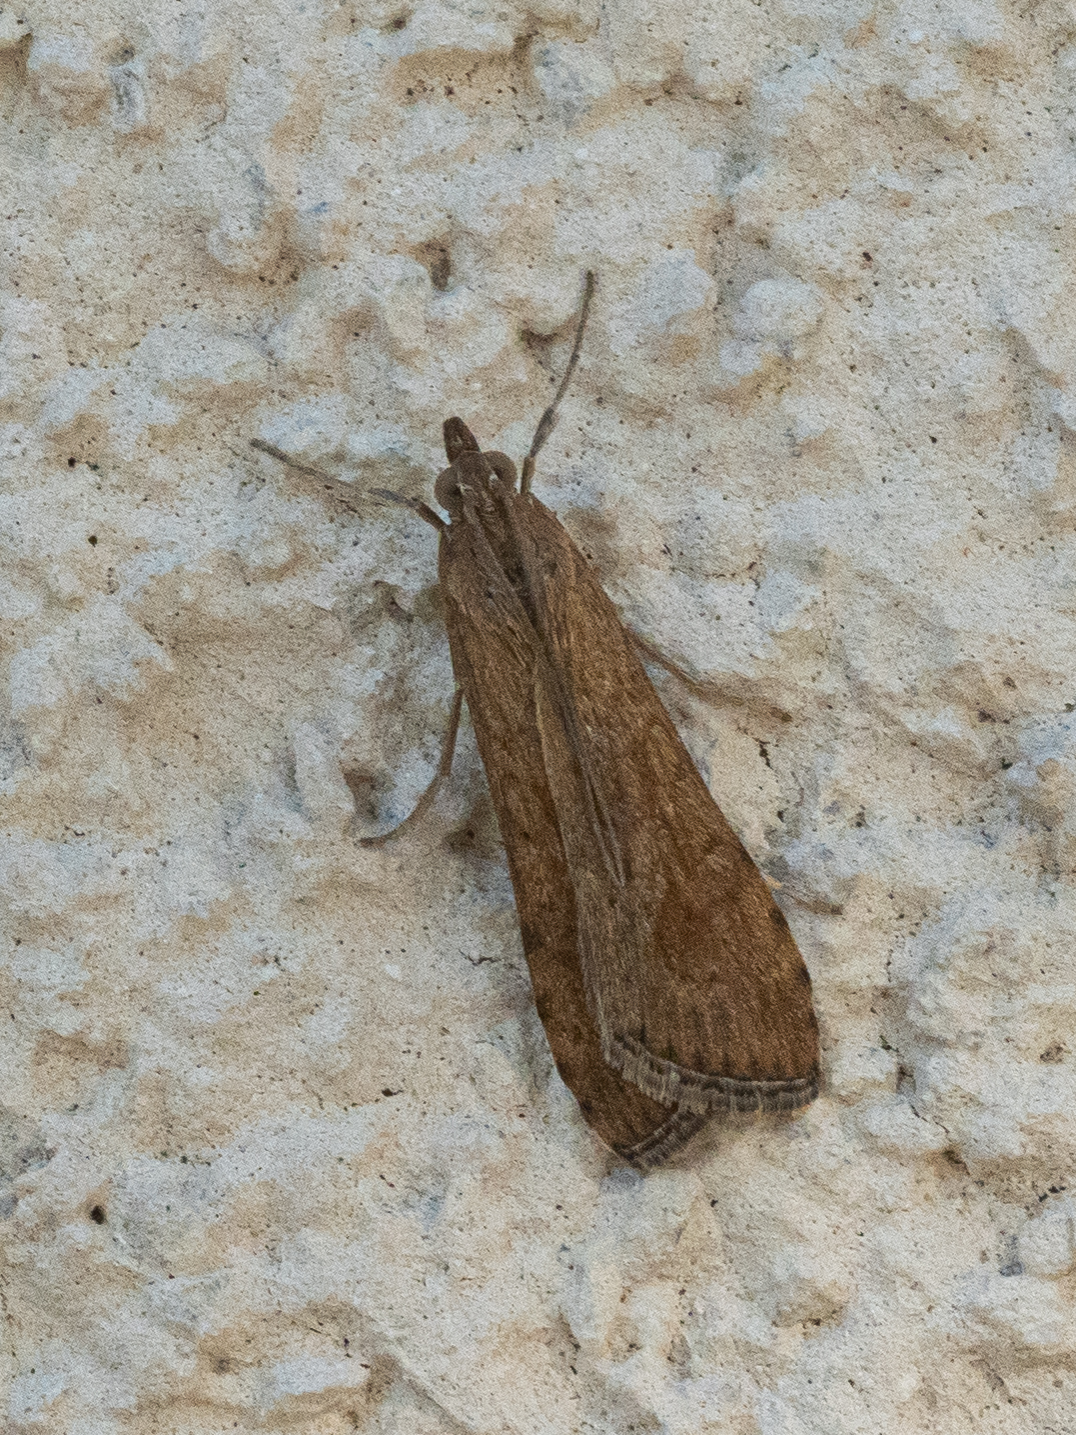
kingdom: Animalia
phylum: Arthropoda
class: Insecta
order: Lepidoptera
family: Crambidae
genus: Nomophila
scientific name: Nomophila noctuella
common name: Rush veneer
